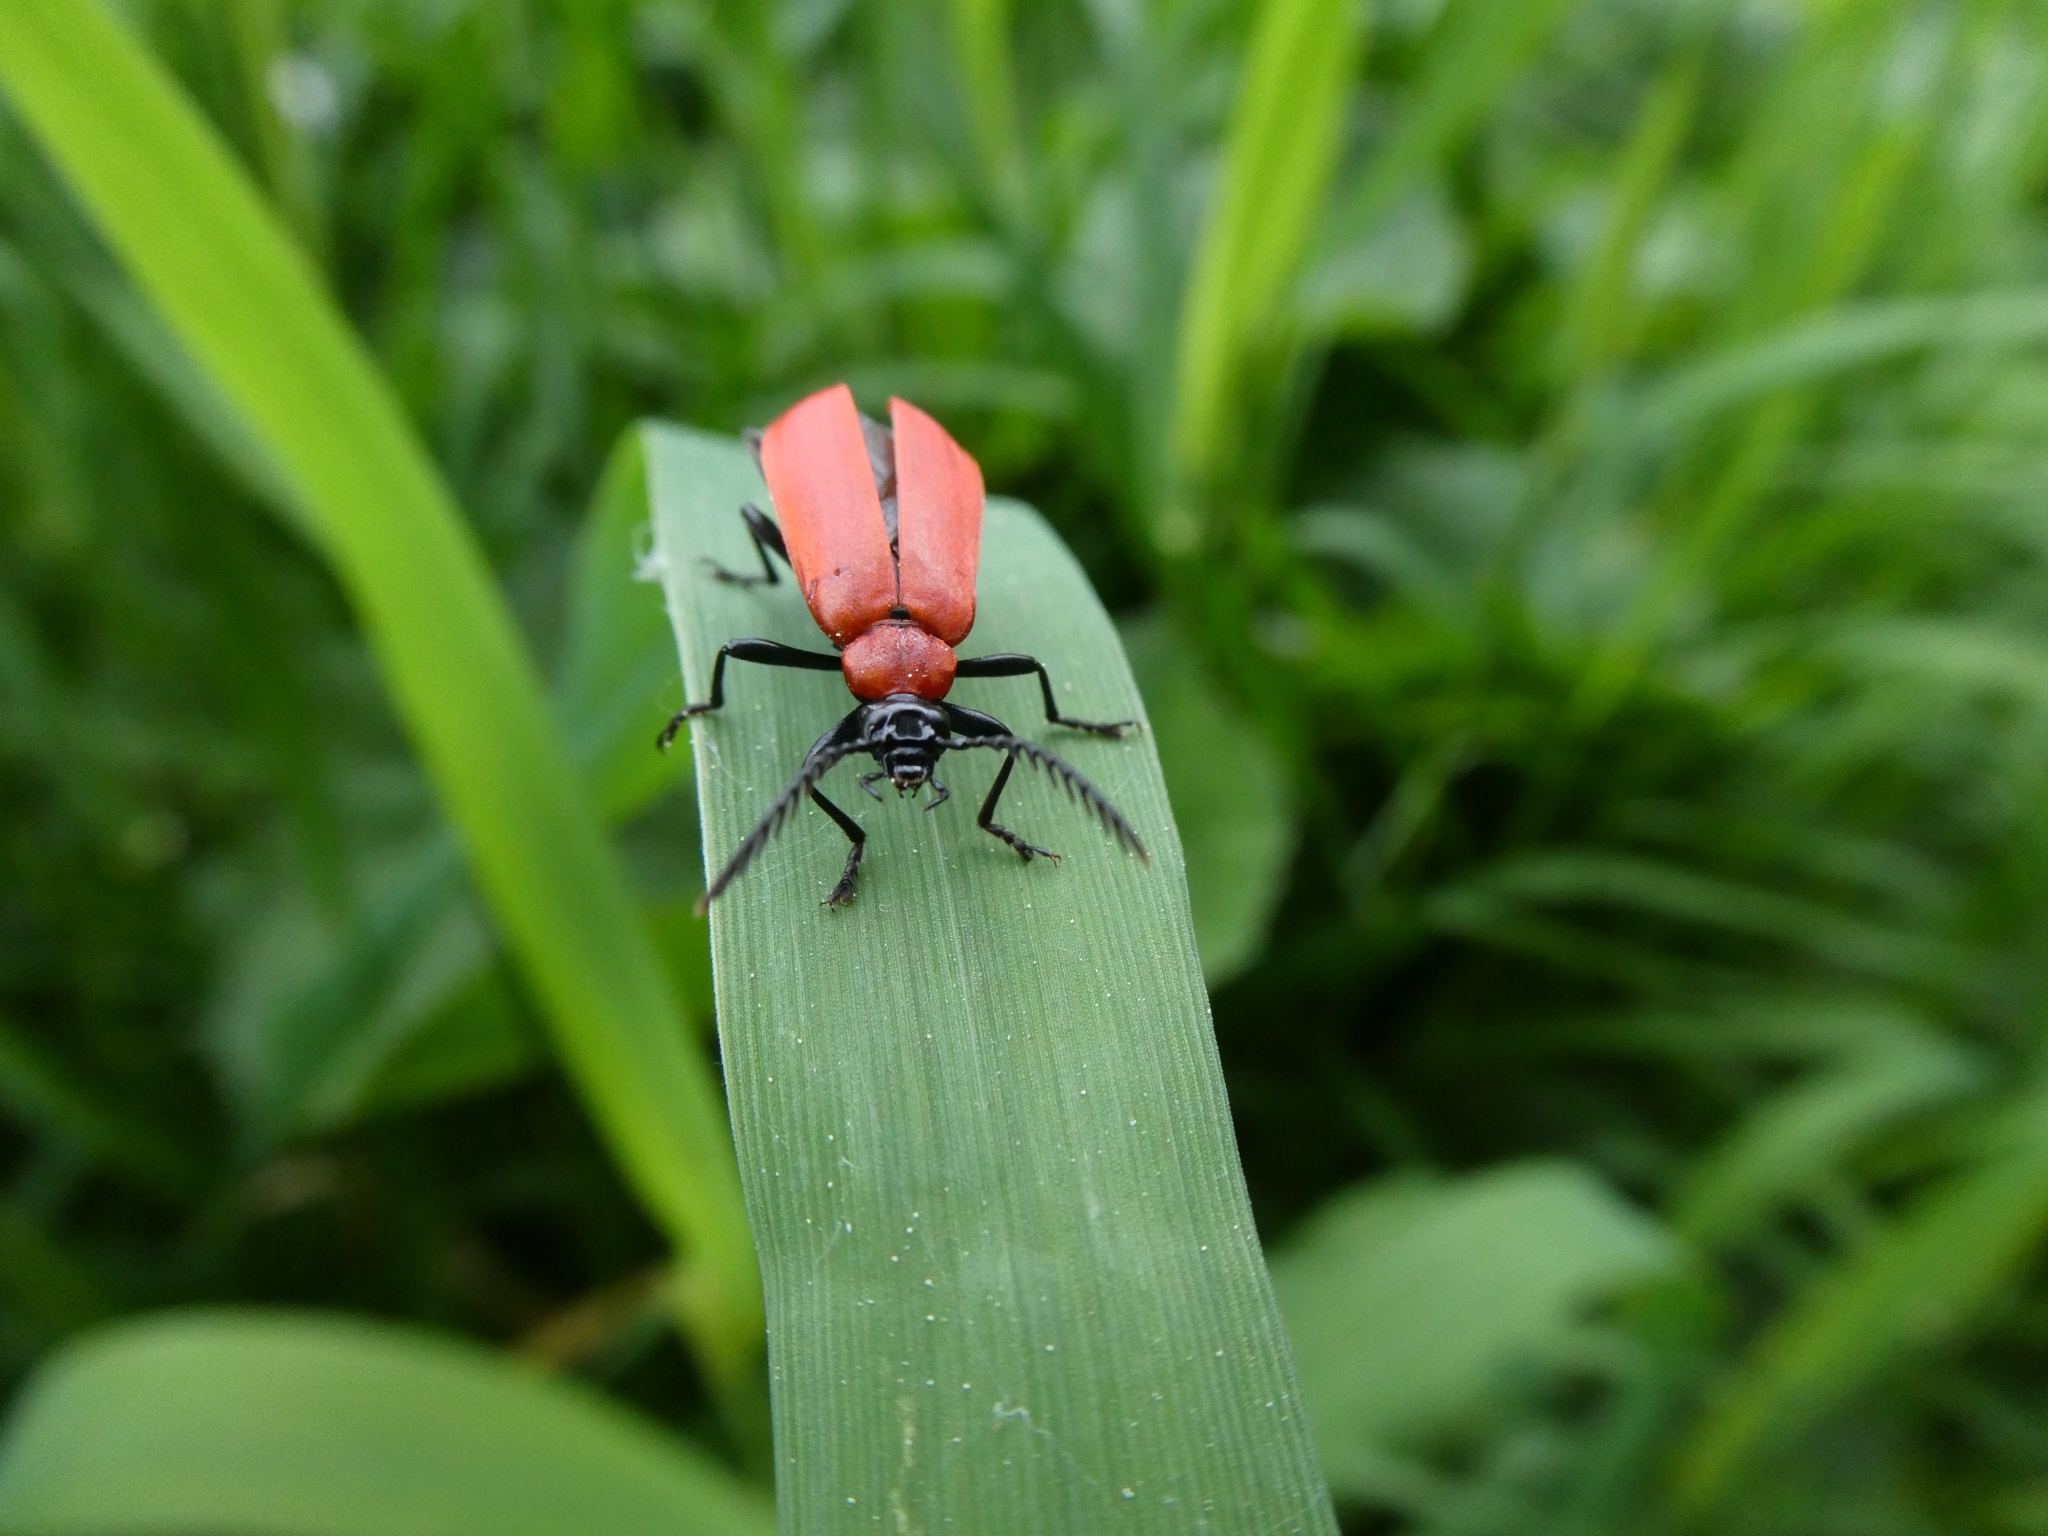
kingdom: Animalia
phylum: Arthropoda
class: Insecta
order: Coleoptera
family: Pyrochroidae
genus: Pyrochroa
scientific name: Pyrochroa coccinea
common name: Black-headed cardinal beetle
